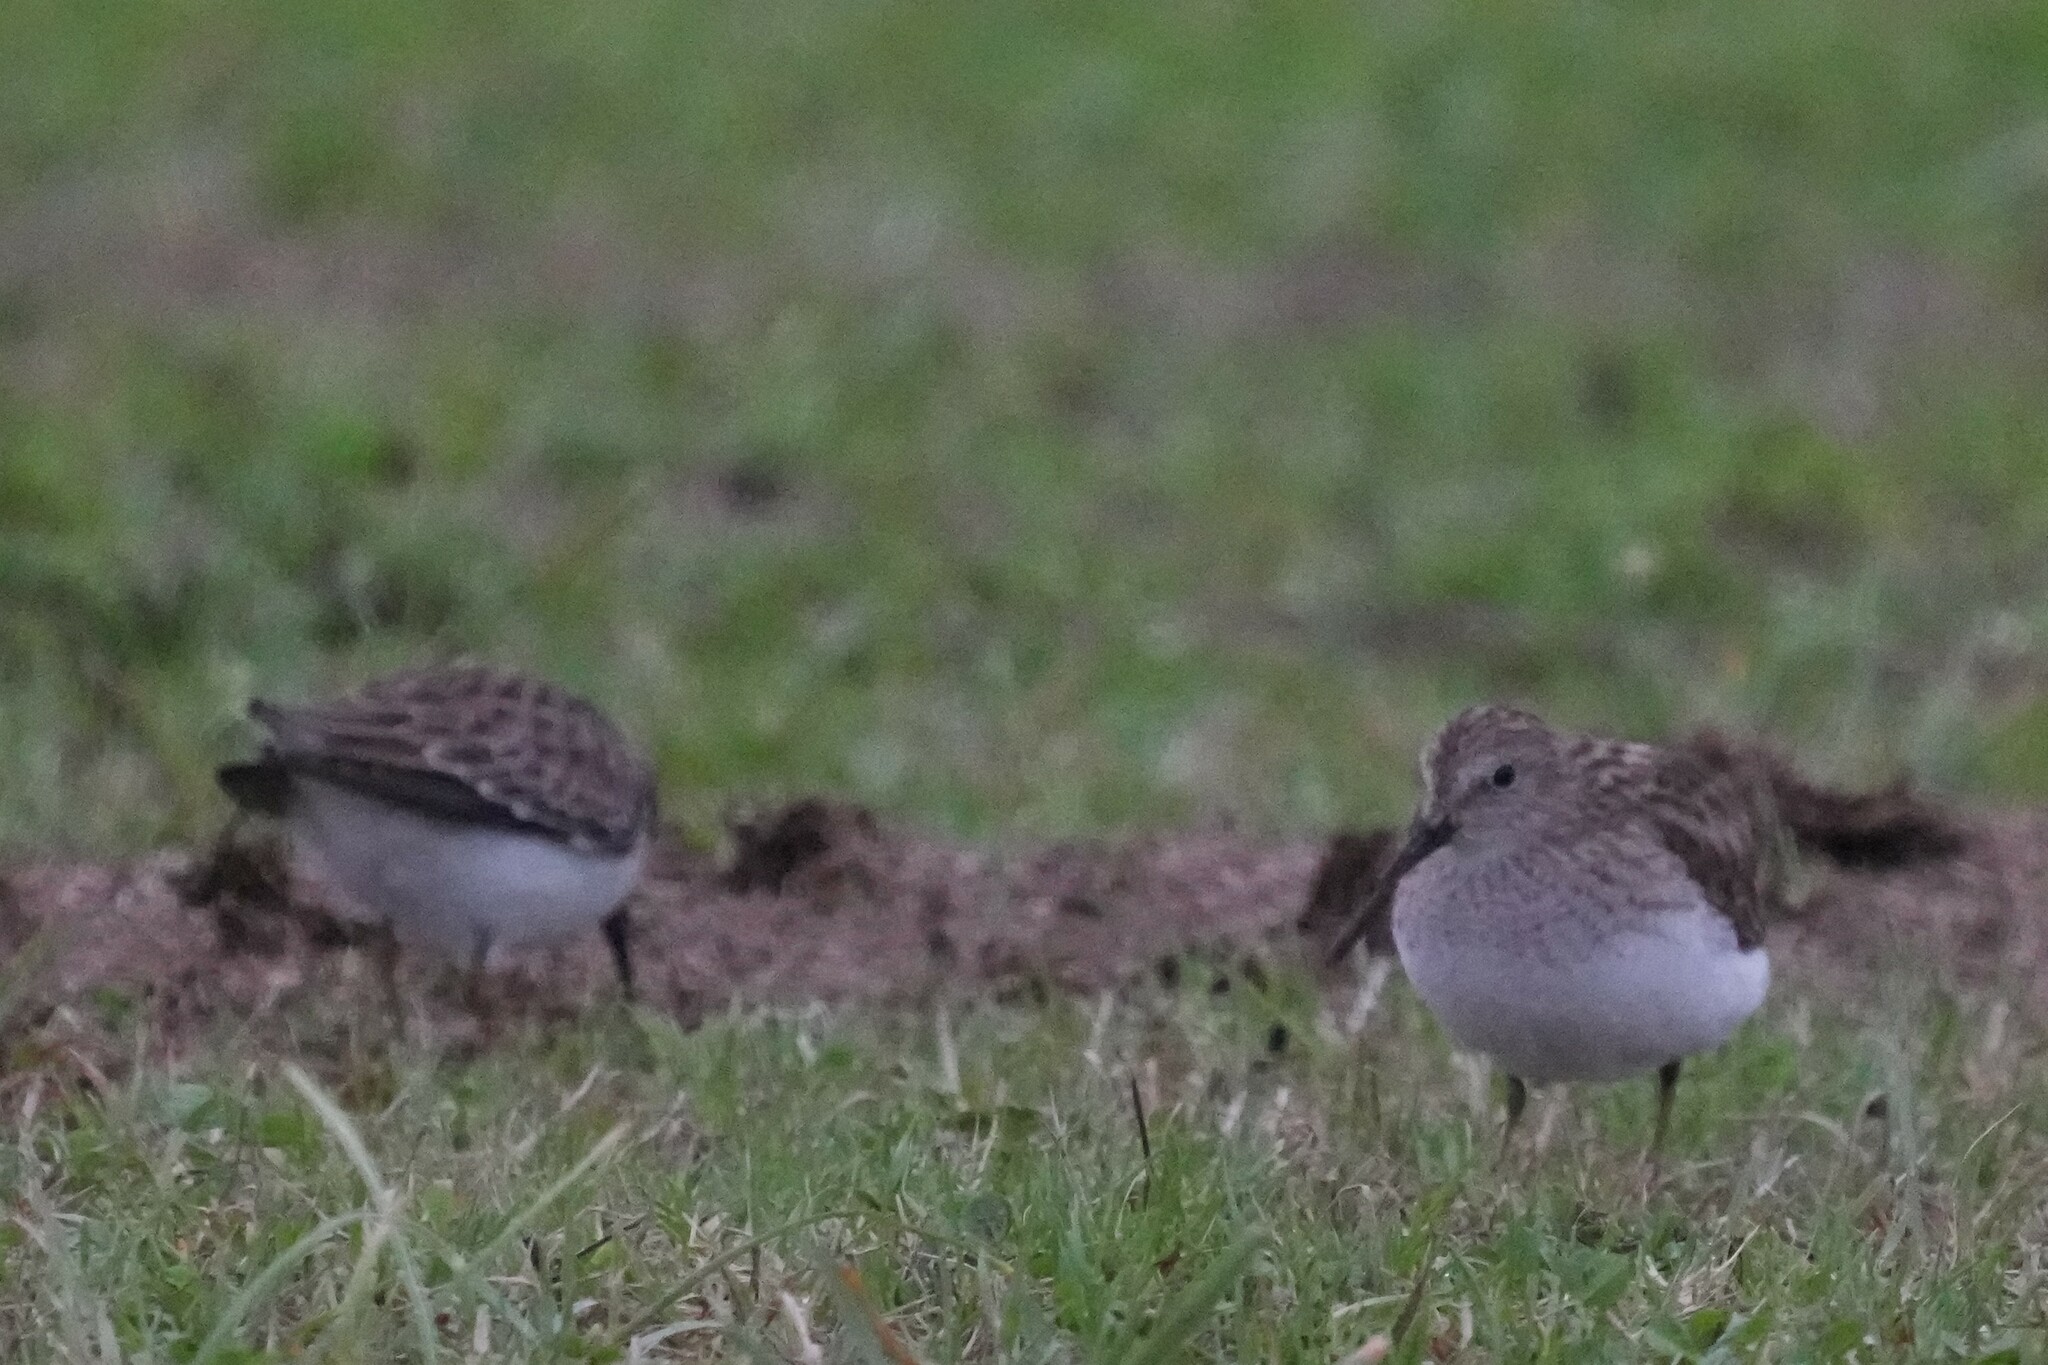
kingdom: Animalia
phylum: Chordata
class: Aves
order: Charadriiformes
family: Scolopacidae
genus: Calidris
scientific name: Calidris minutilla
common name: Least sandpiper
